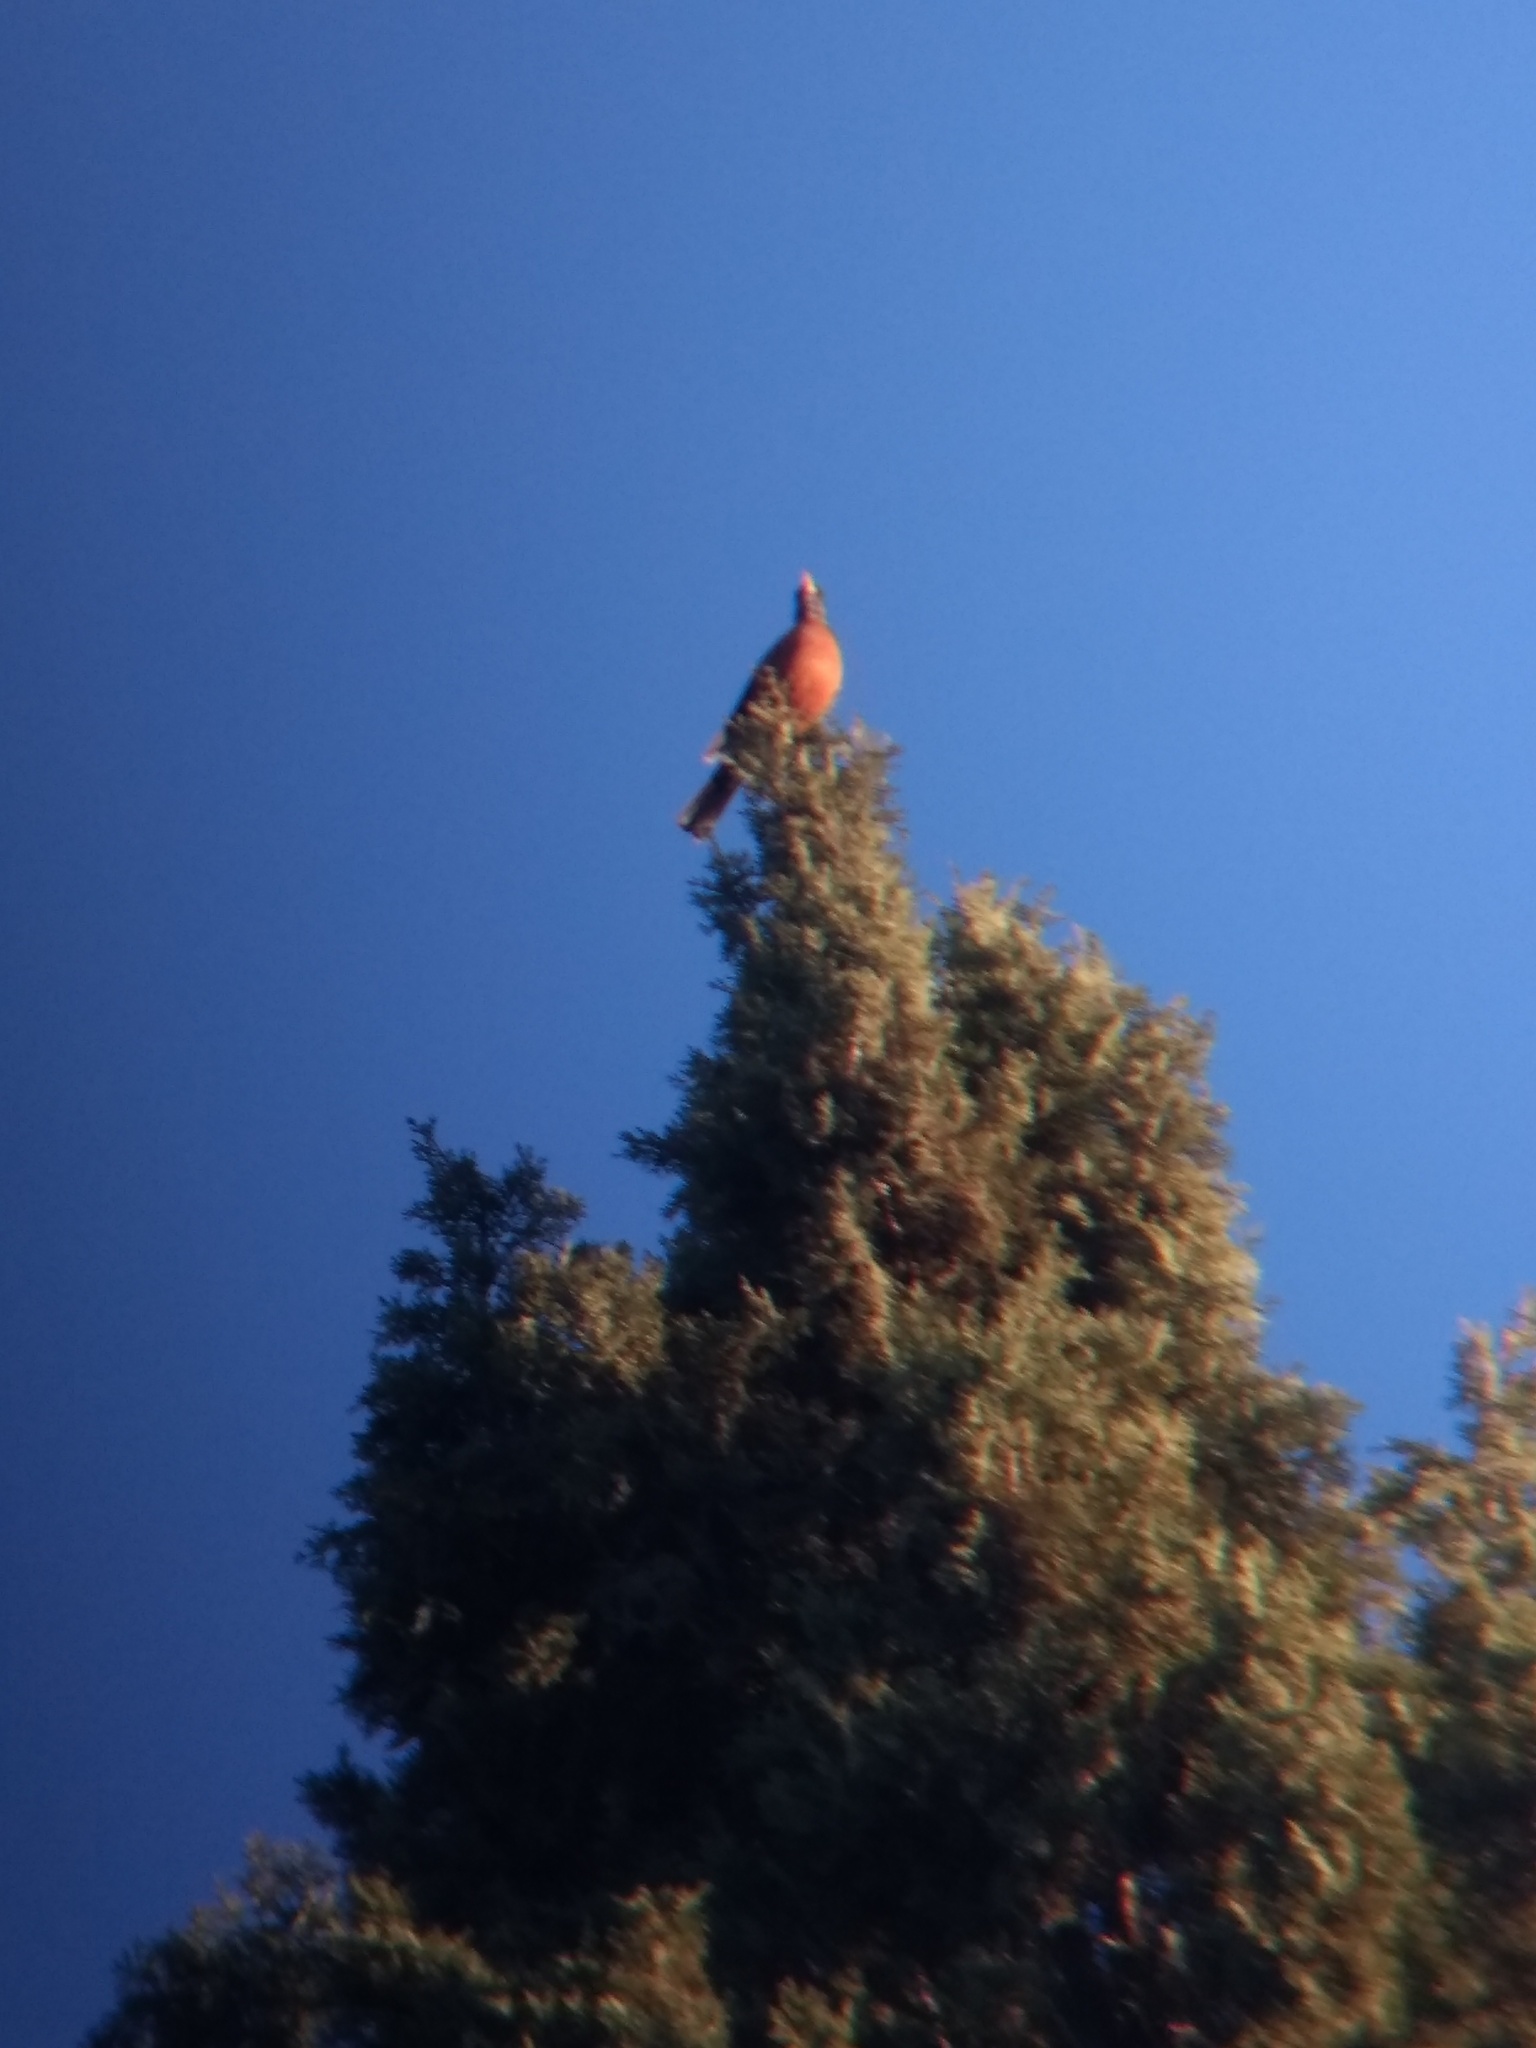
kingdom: Animalia
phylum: Chordata
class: Aves
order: Passeriformes
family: Turdidae
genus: Turdus
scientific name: Turdus migratorius
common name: American robin
